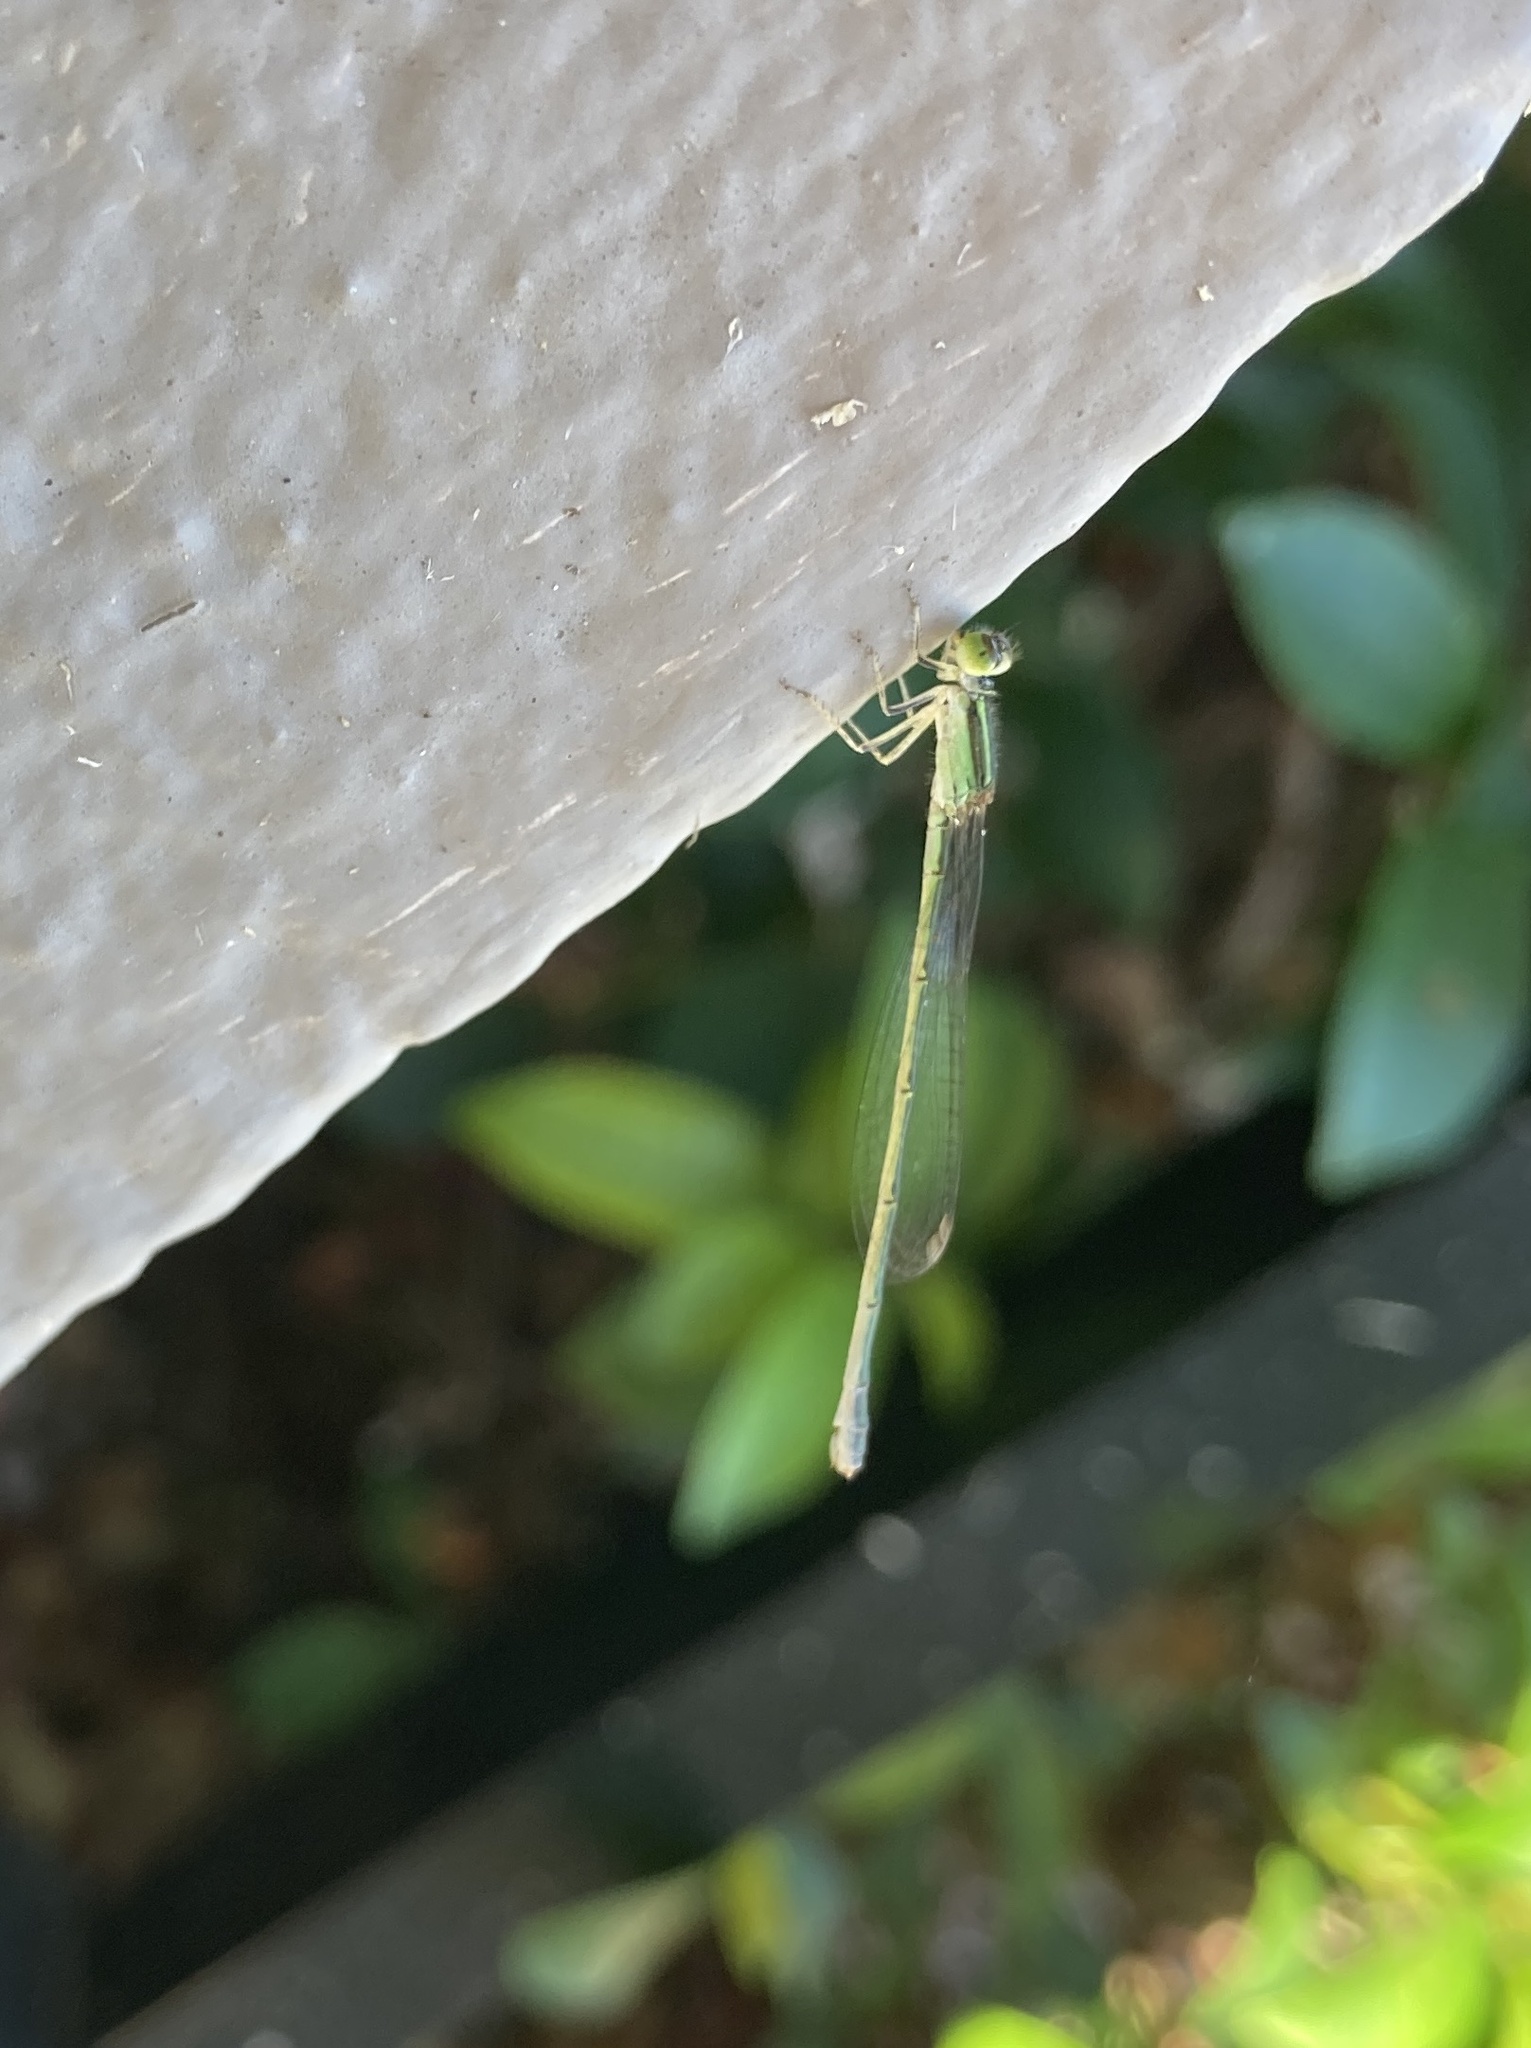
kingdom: Animalia
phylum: Arthropoda
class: Insecta
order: Odonata
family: Coenagrionidae
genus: Ischnura
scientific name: Ischnura aurora
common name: Gossamer damselfly
